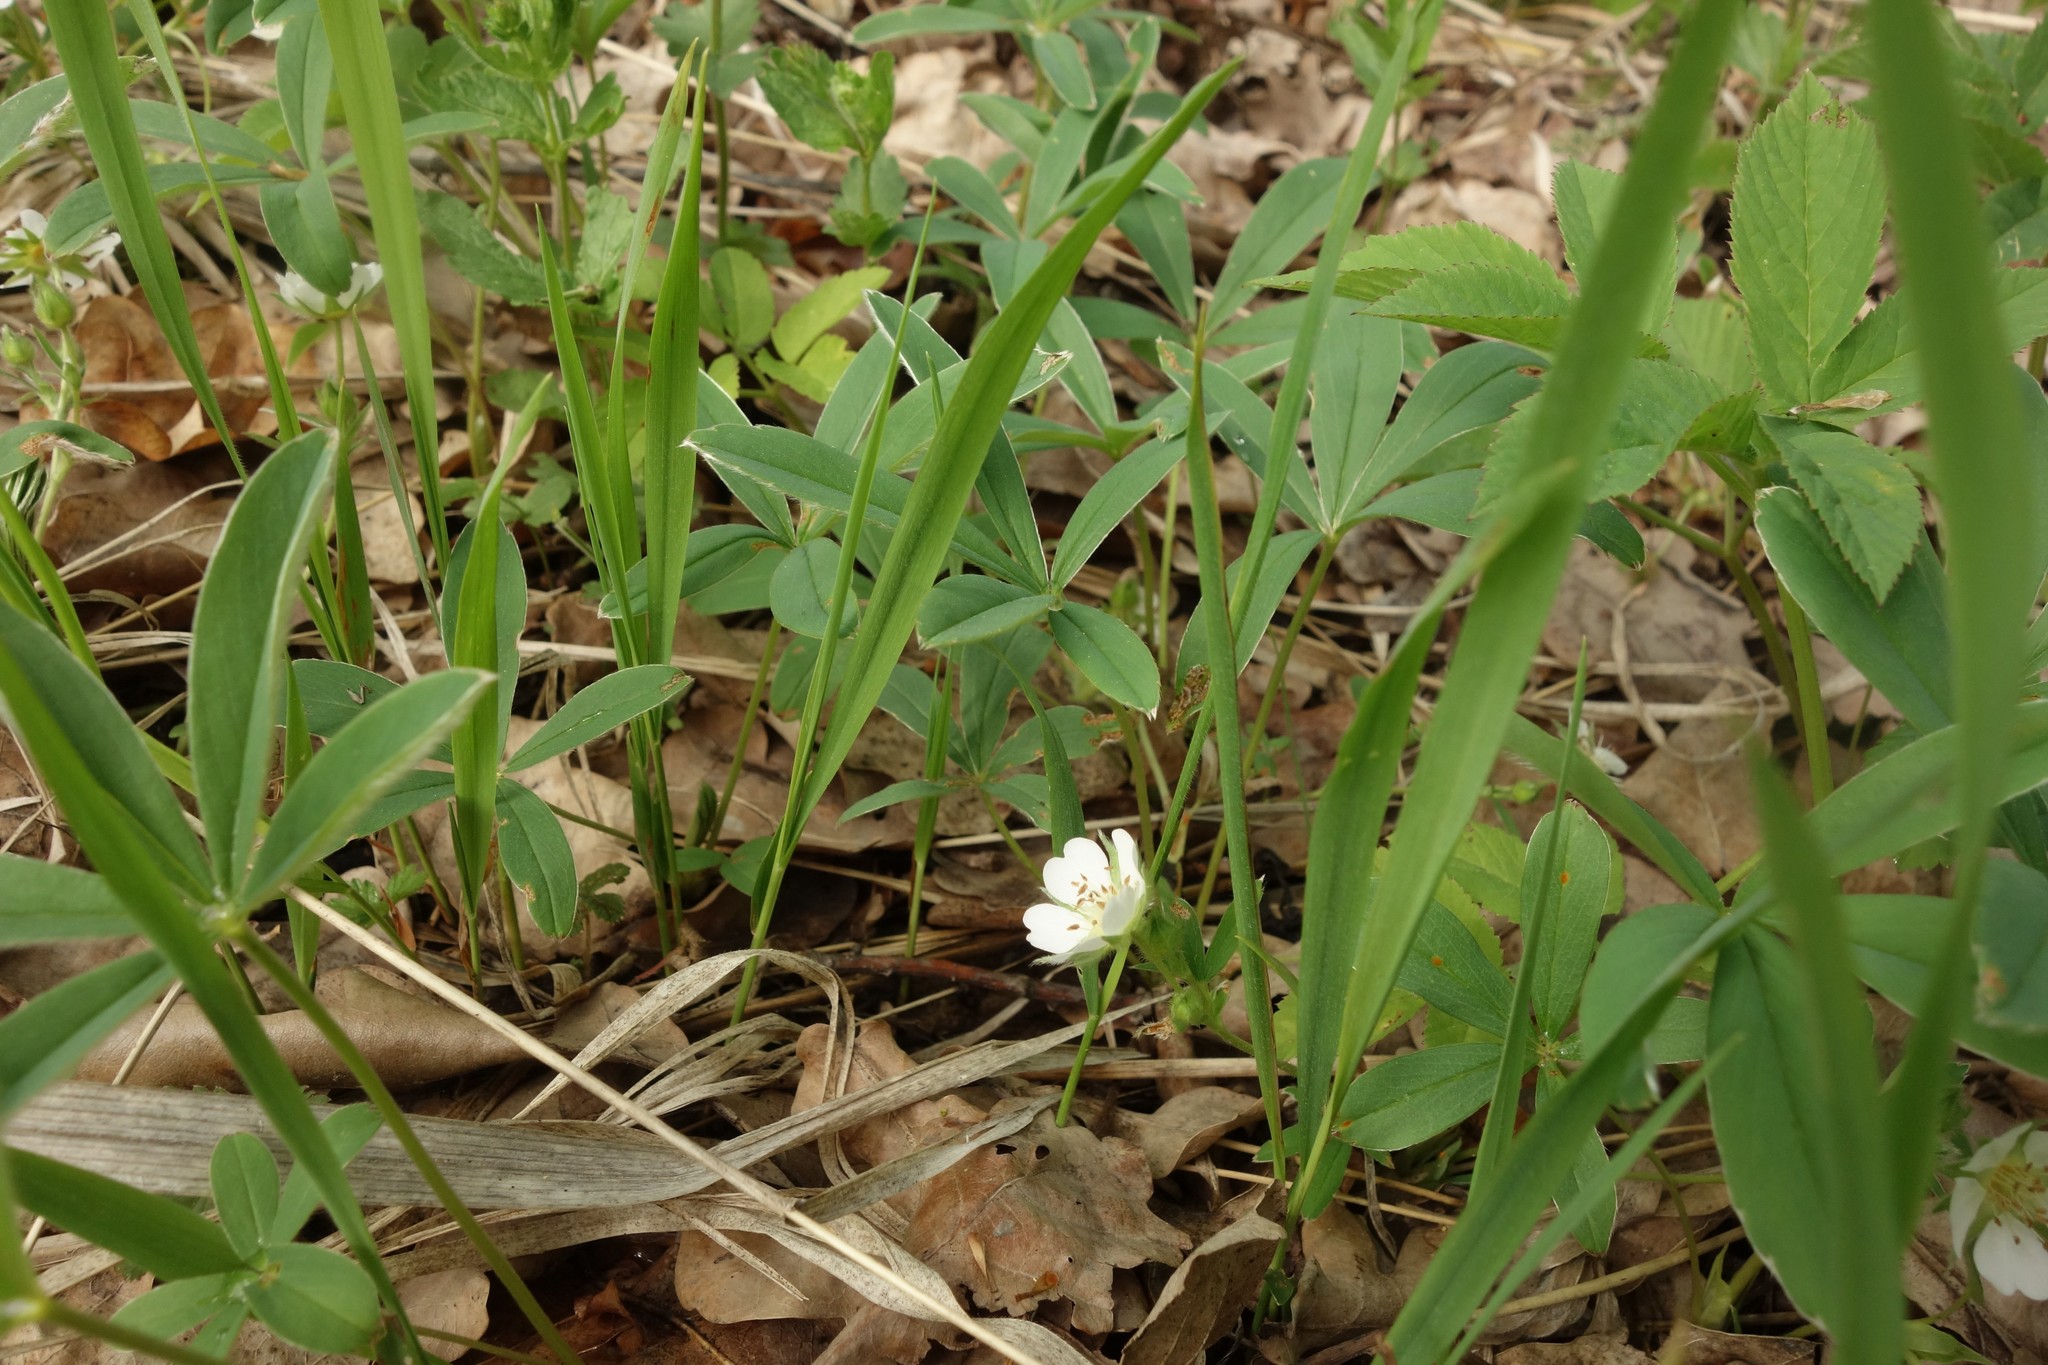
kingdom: Plantae
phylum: Tracheophyta
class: Magnoliopsida
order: Rosales
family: Rosaceae
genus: Potentilla
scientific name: Potentilla alba
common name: White cinquefoil
